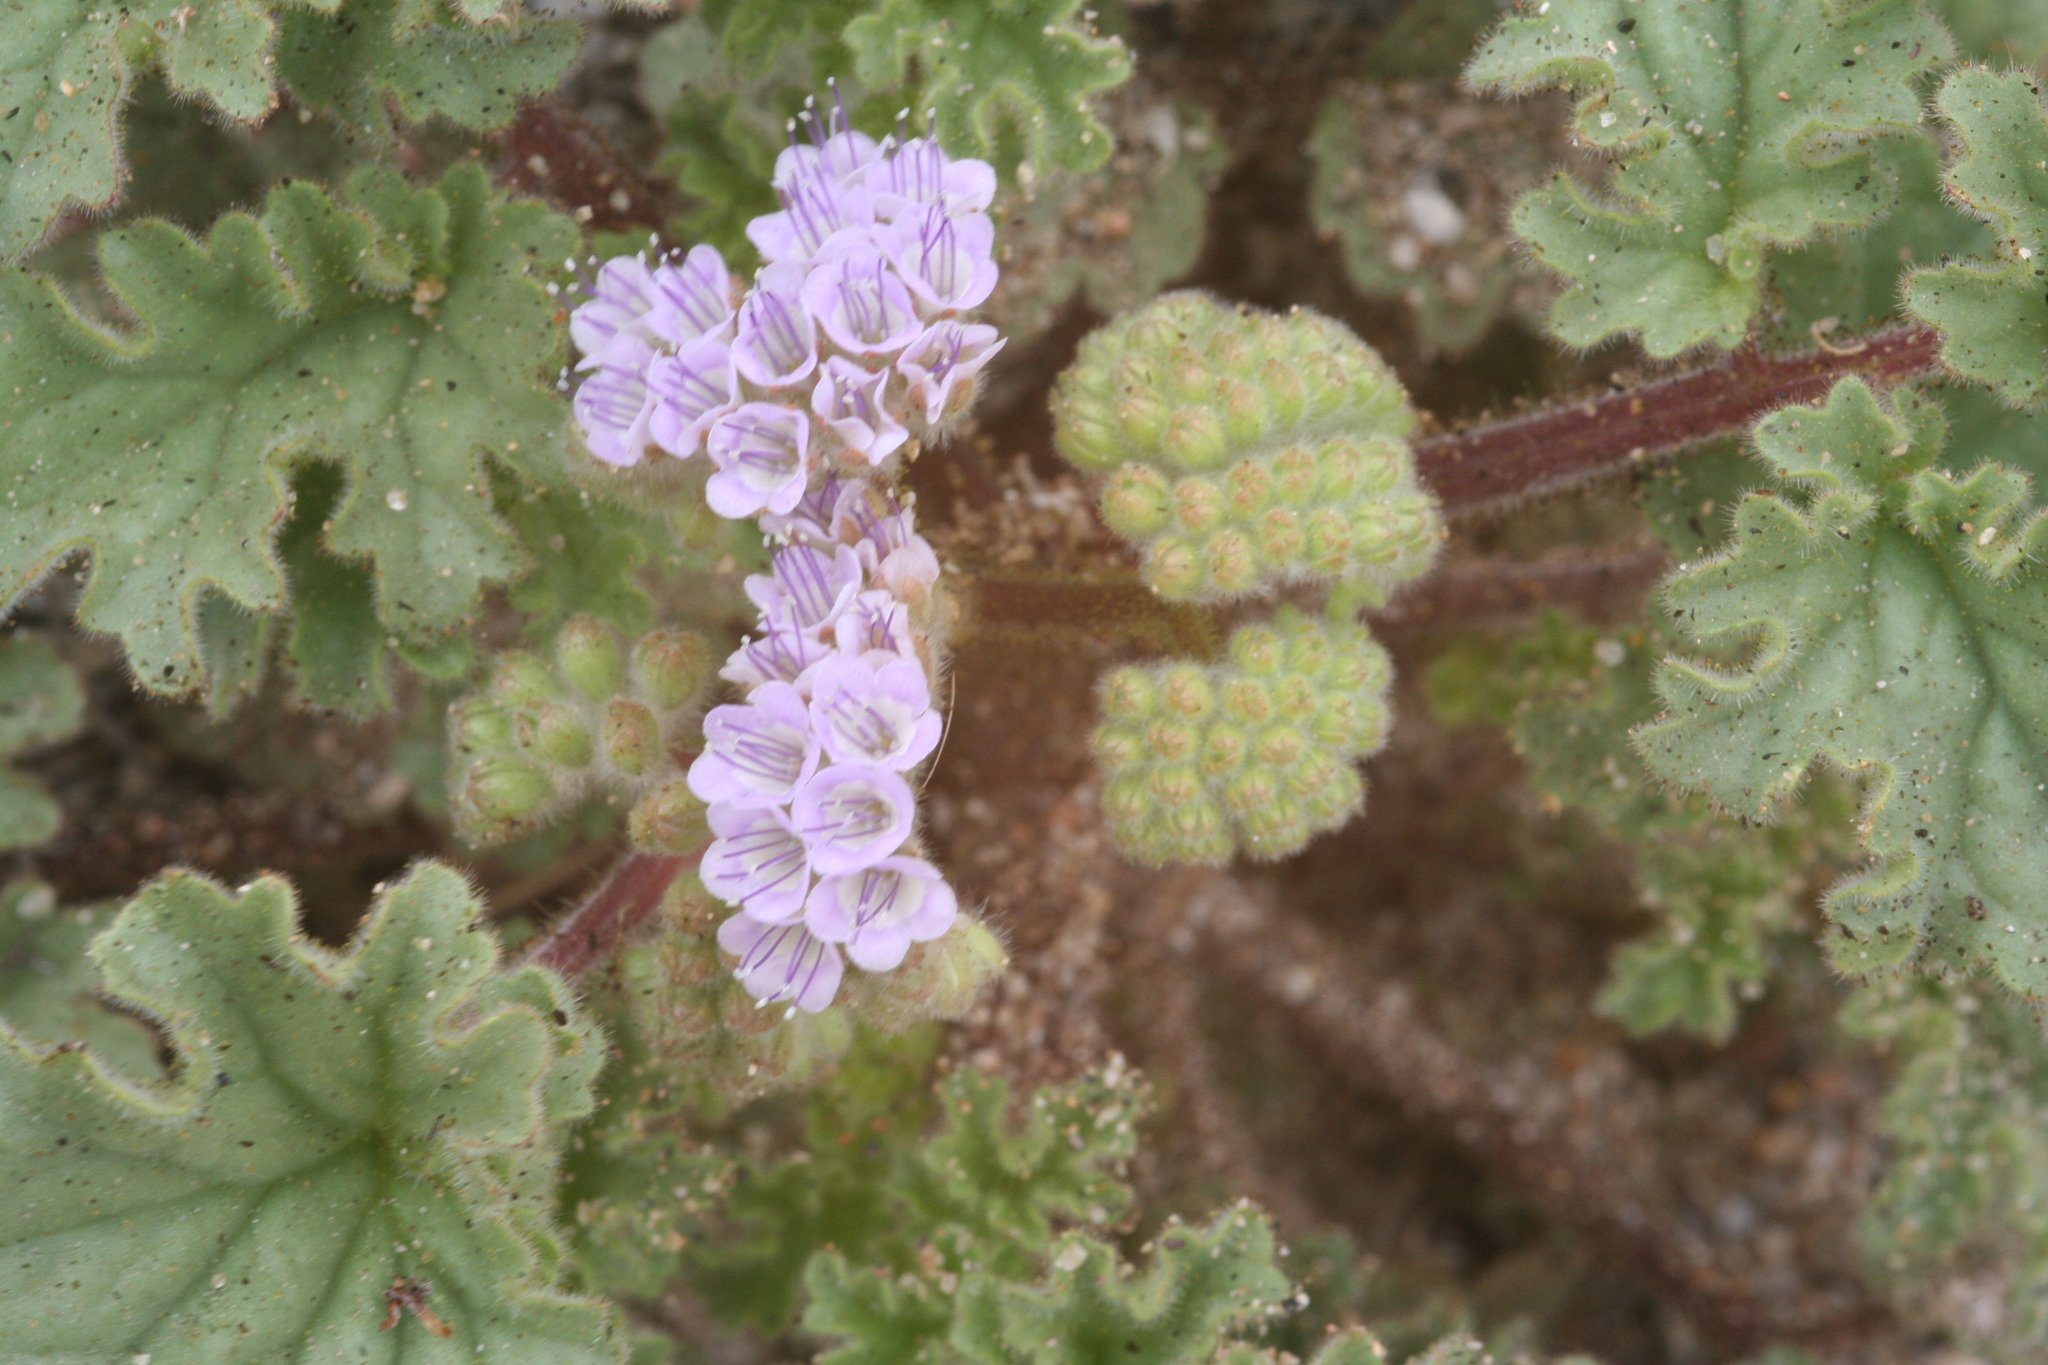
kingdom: Plantae
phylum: Tracheophyta
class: Magnoliopsida
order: Boraginales
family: Hydrophyllaceae
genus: Phacelia
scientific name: Phacelia pedicellata
